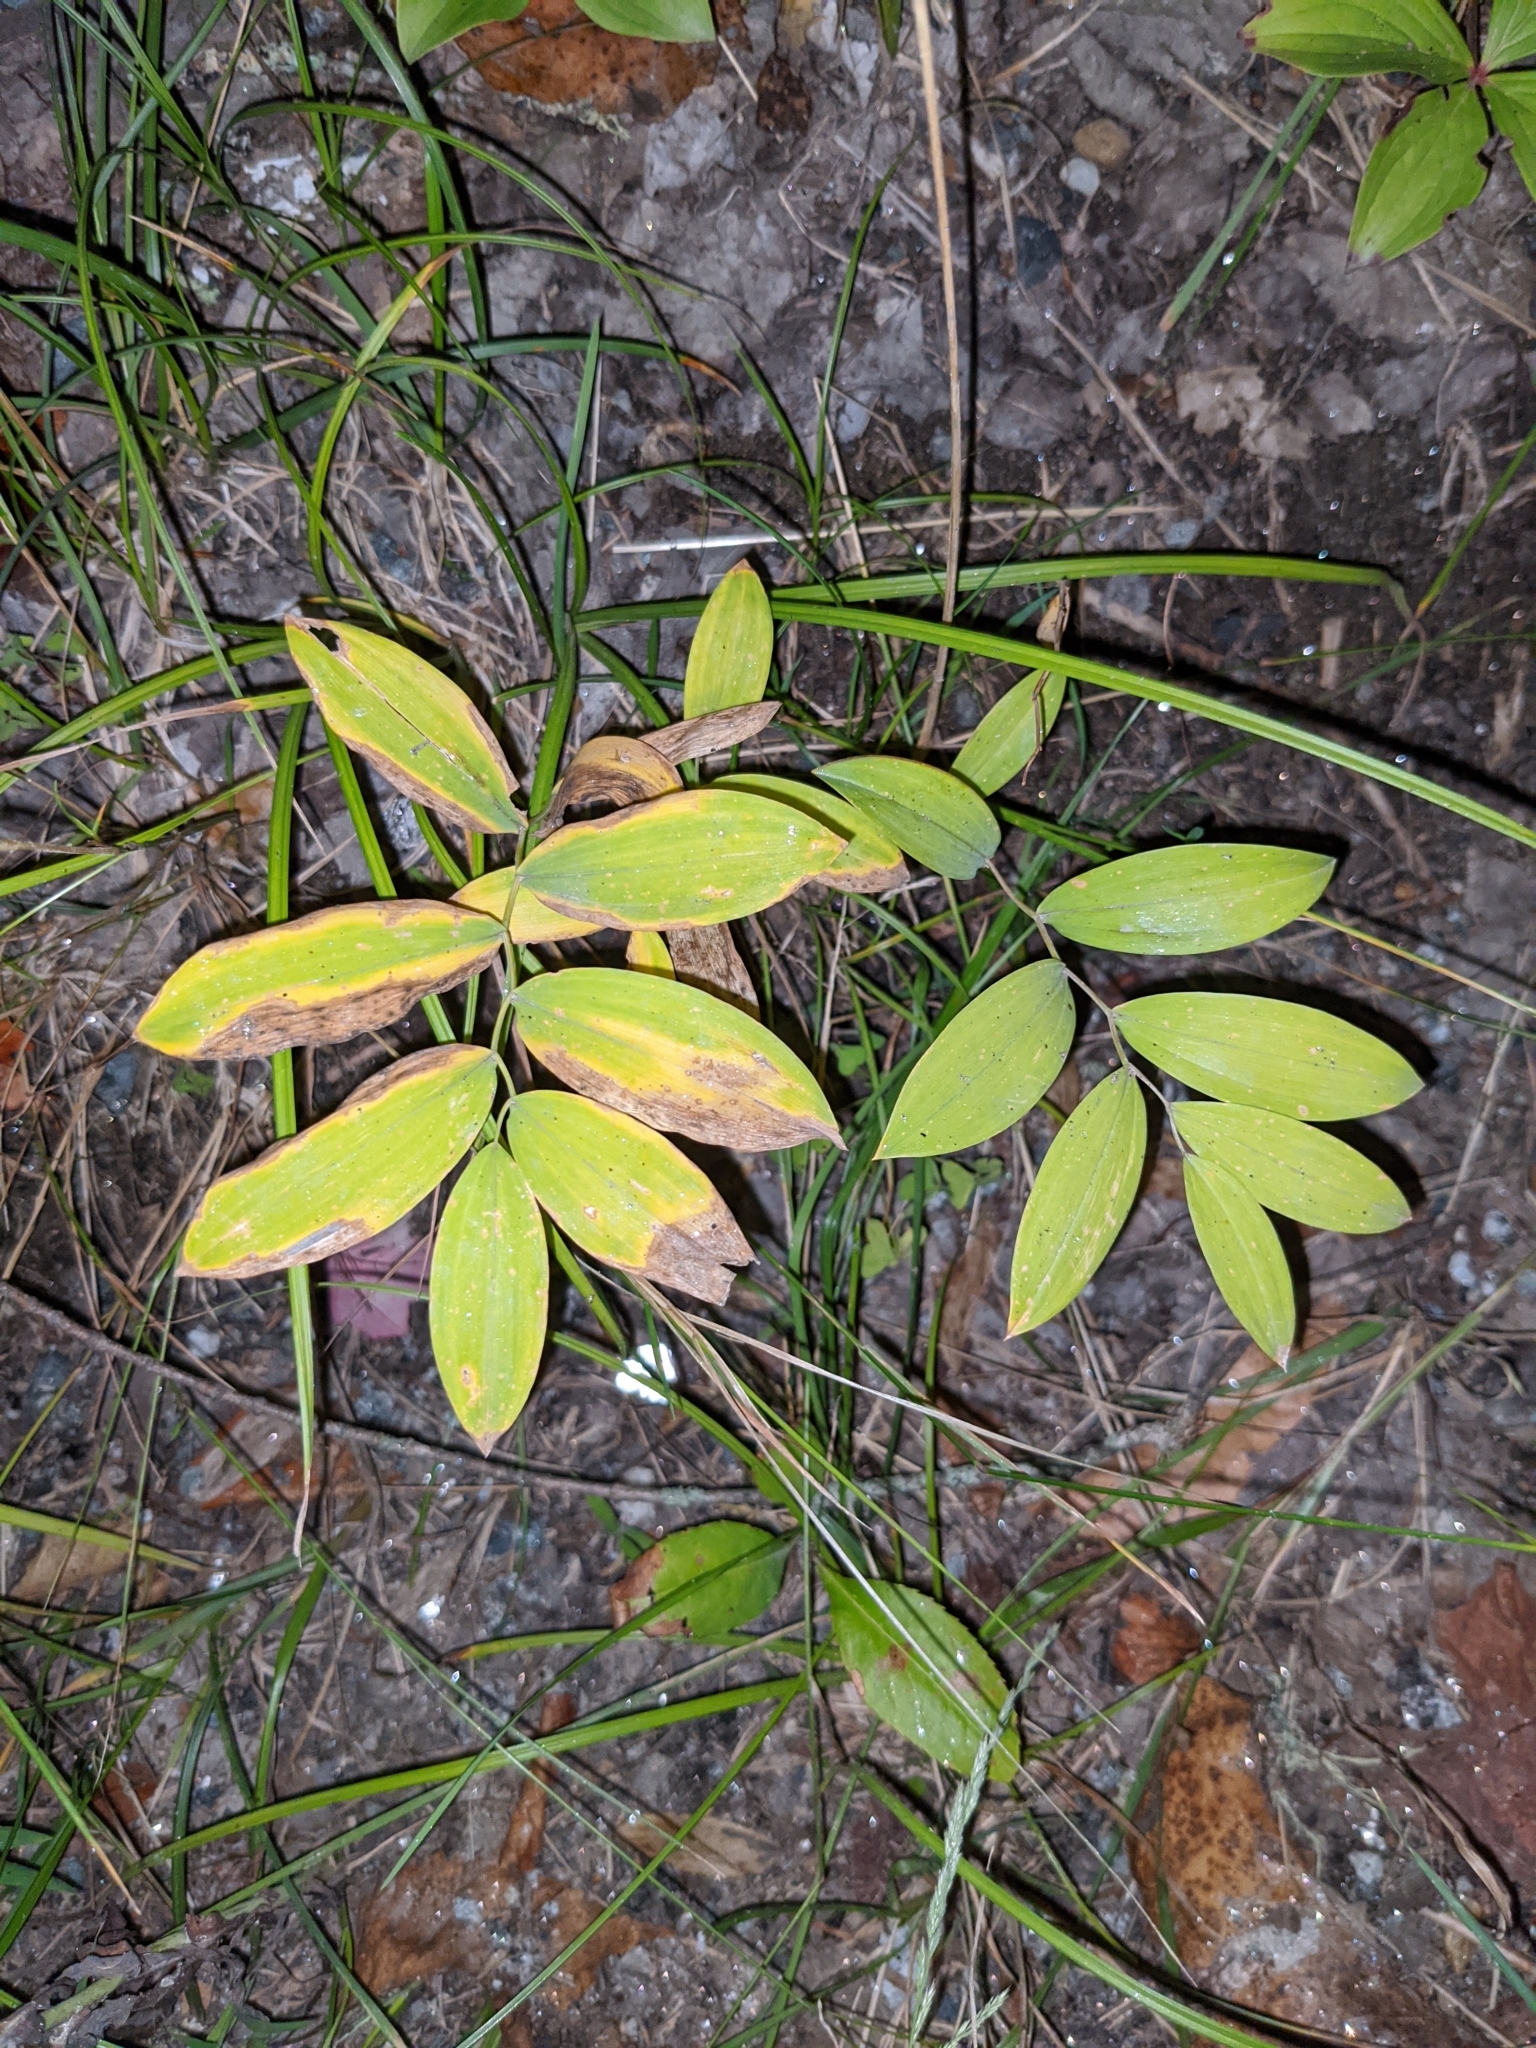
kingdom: Plantae
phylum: Tracheophyta
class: Liliopsida
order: Liliales
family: Colchicaceae
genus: Uvularia
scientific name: Uvularia sessilifolia
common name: Straw-lily
